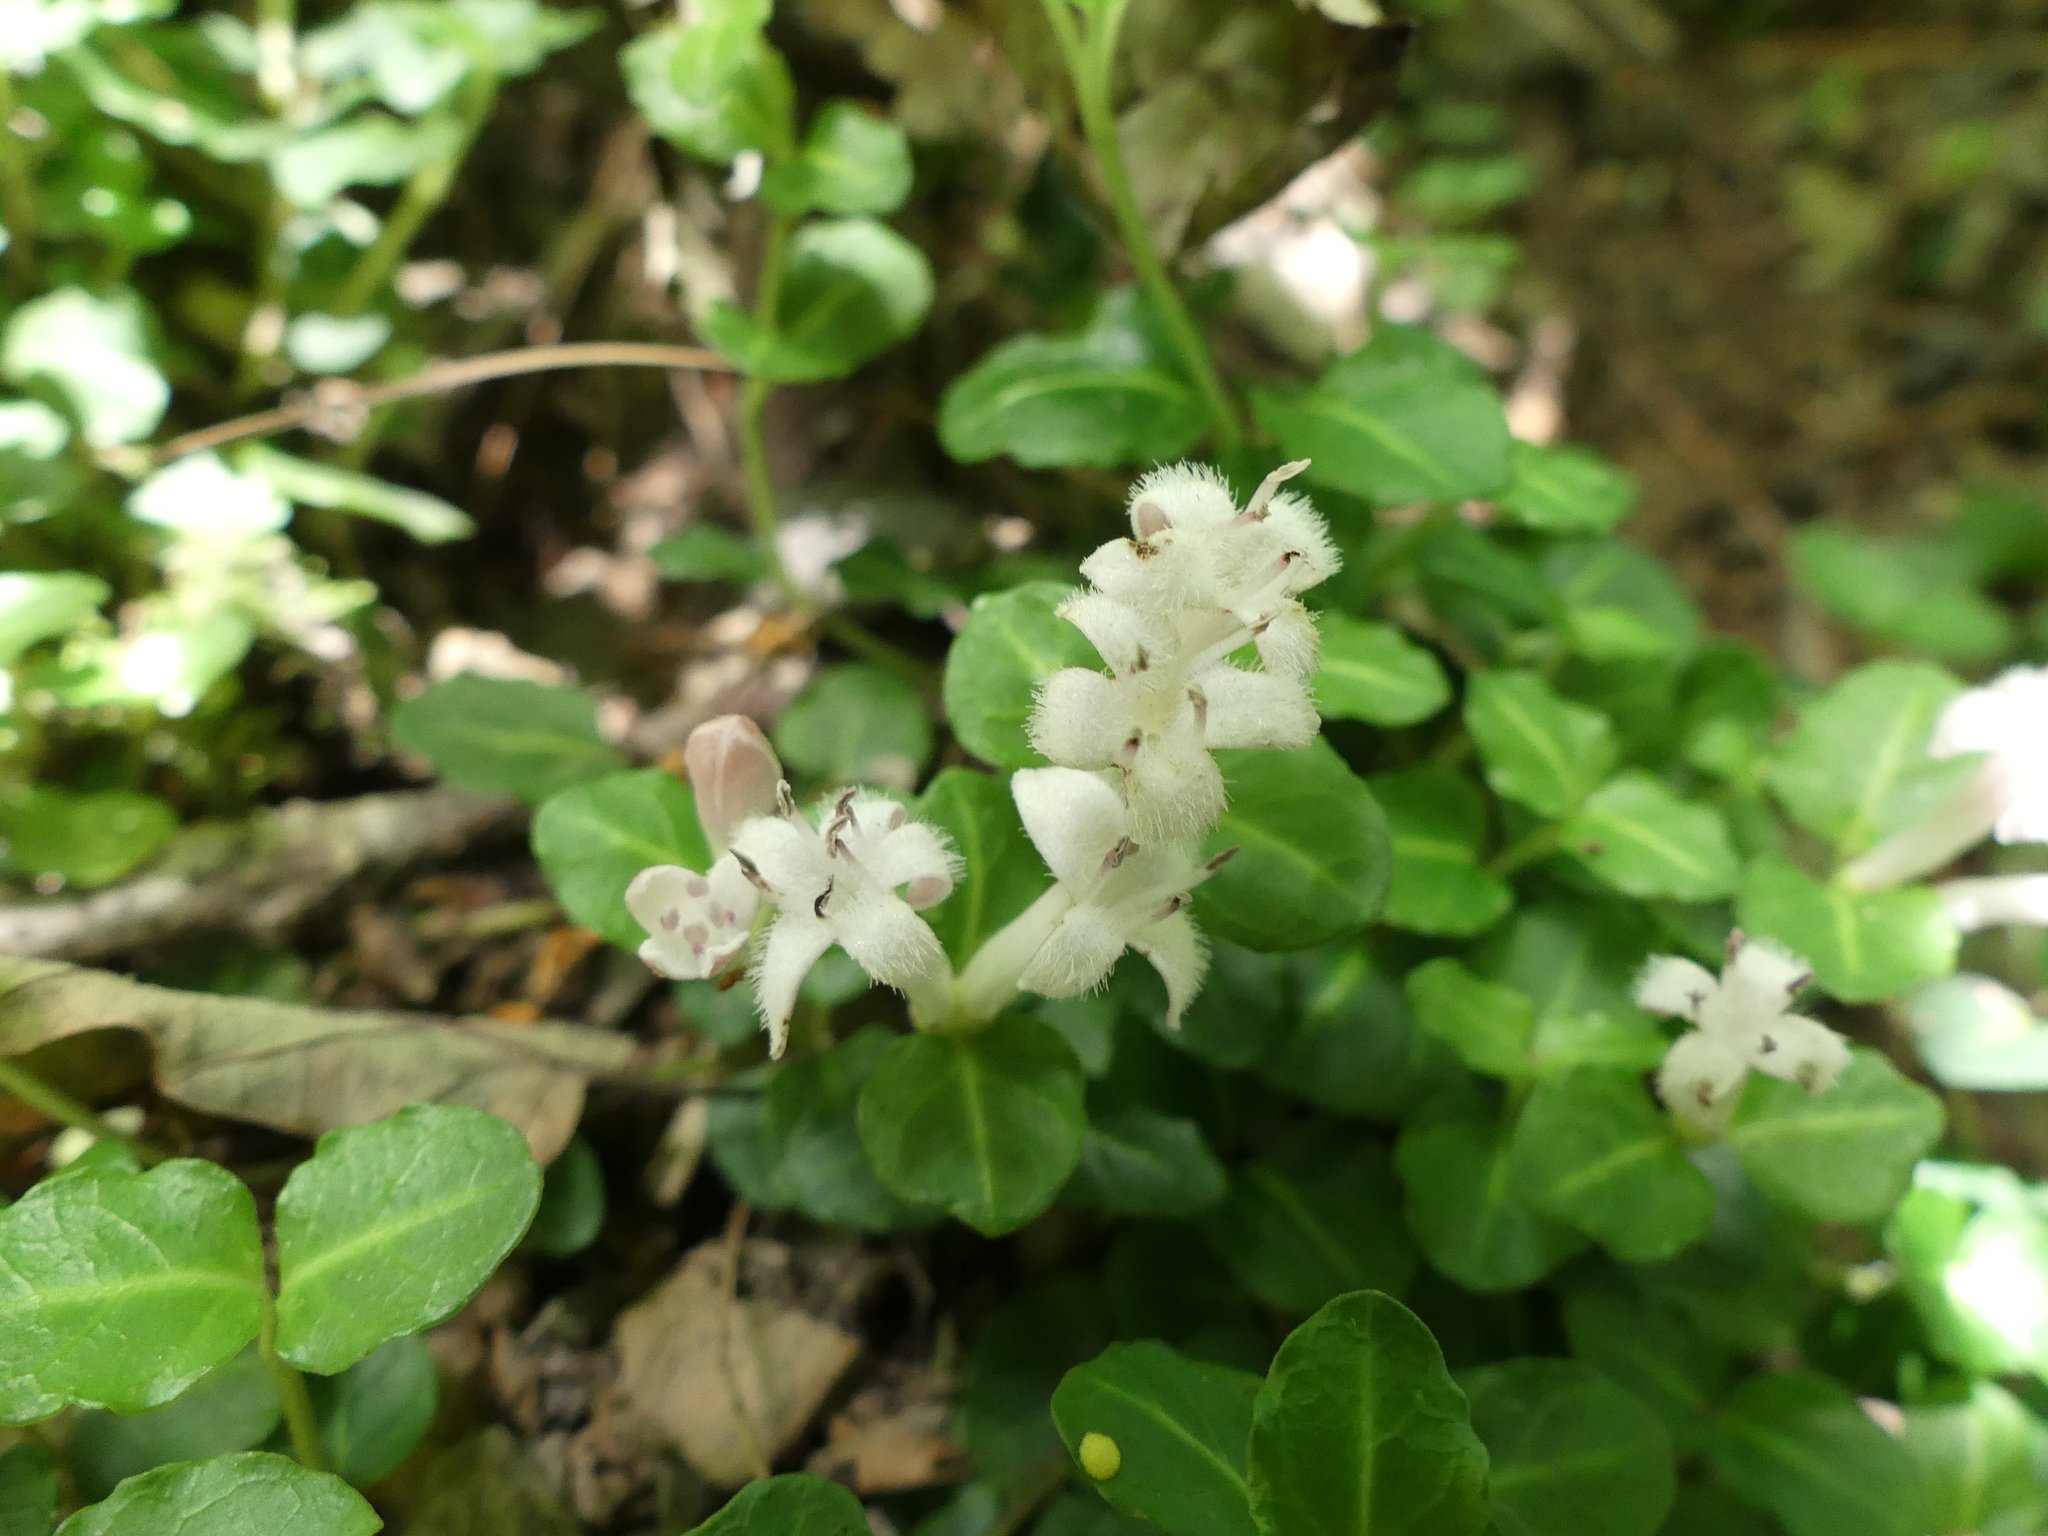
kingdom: Plantae
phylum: Tracheophyta
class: Magnoliopsida
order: Gentianales
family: Rubiaceae
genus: Mitchella
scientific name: Mitchella repens
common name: Partridge-berry
